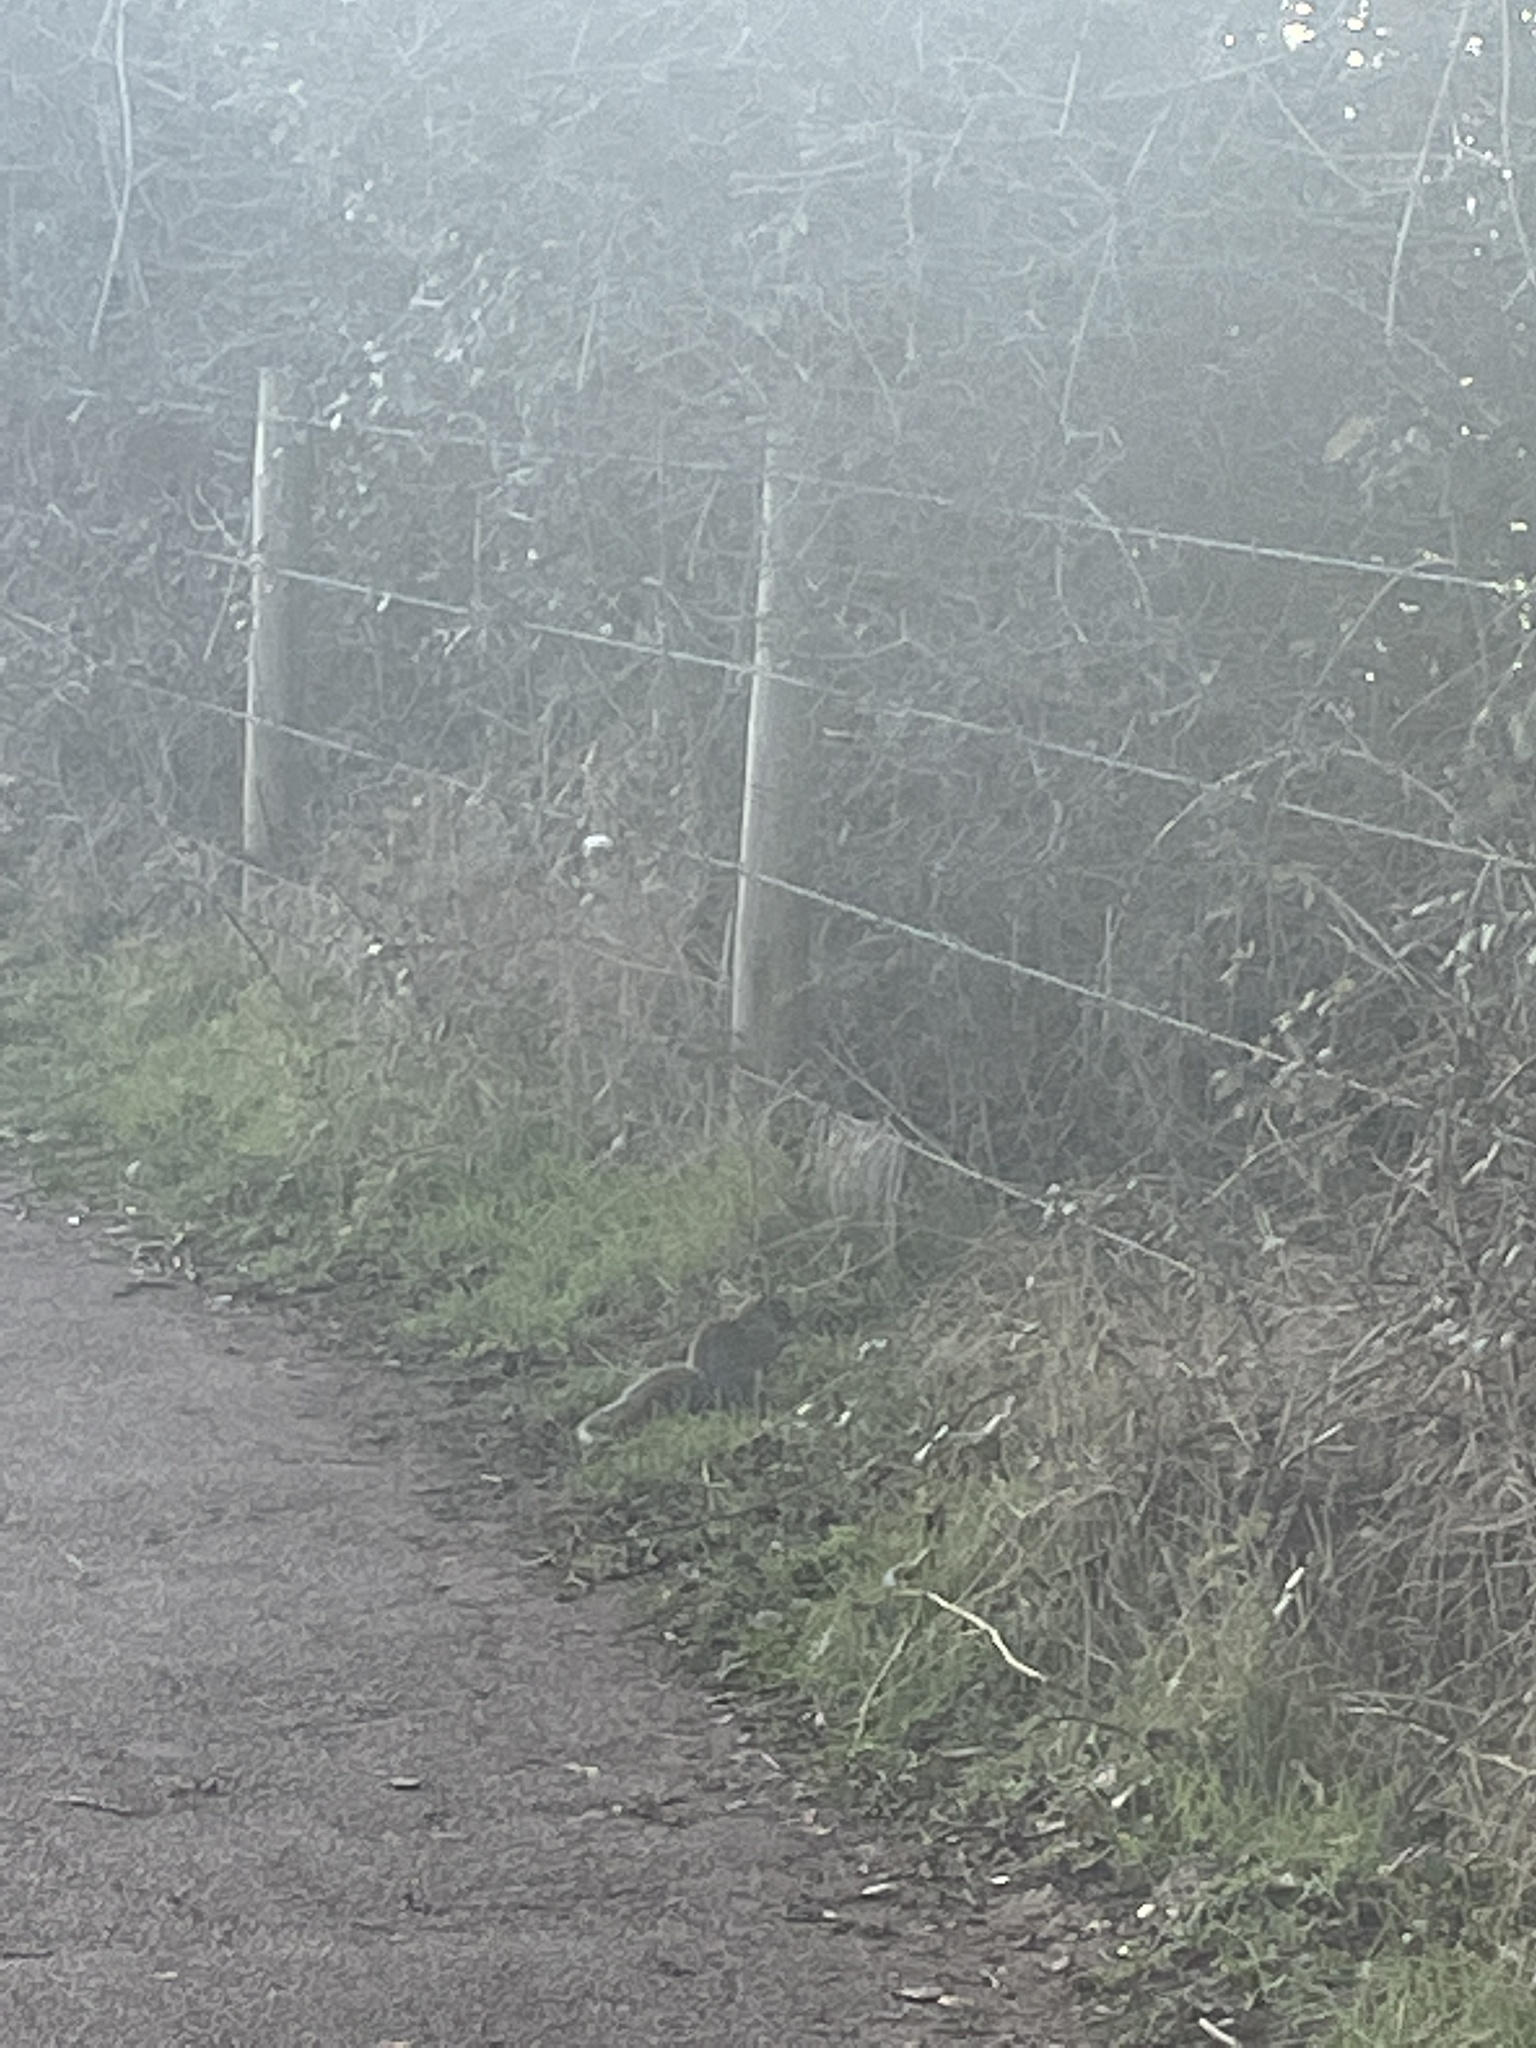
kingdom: Animalia
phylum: Chordata
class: Mammalia
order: Rodentia
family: Sciuridae
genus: Sciurus
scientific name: Sciurus carolinensis
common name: Eastern gray squirrel
